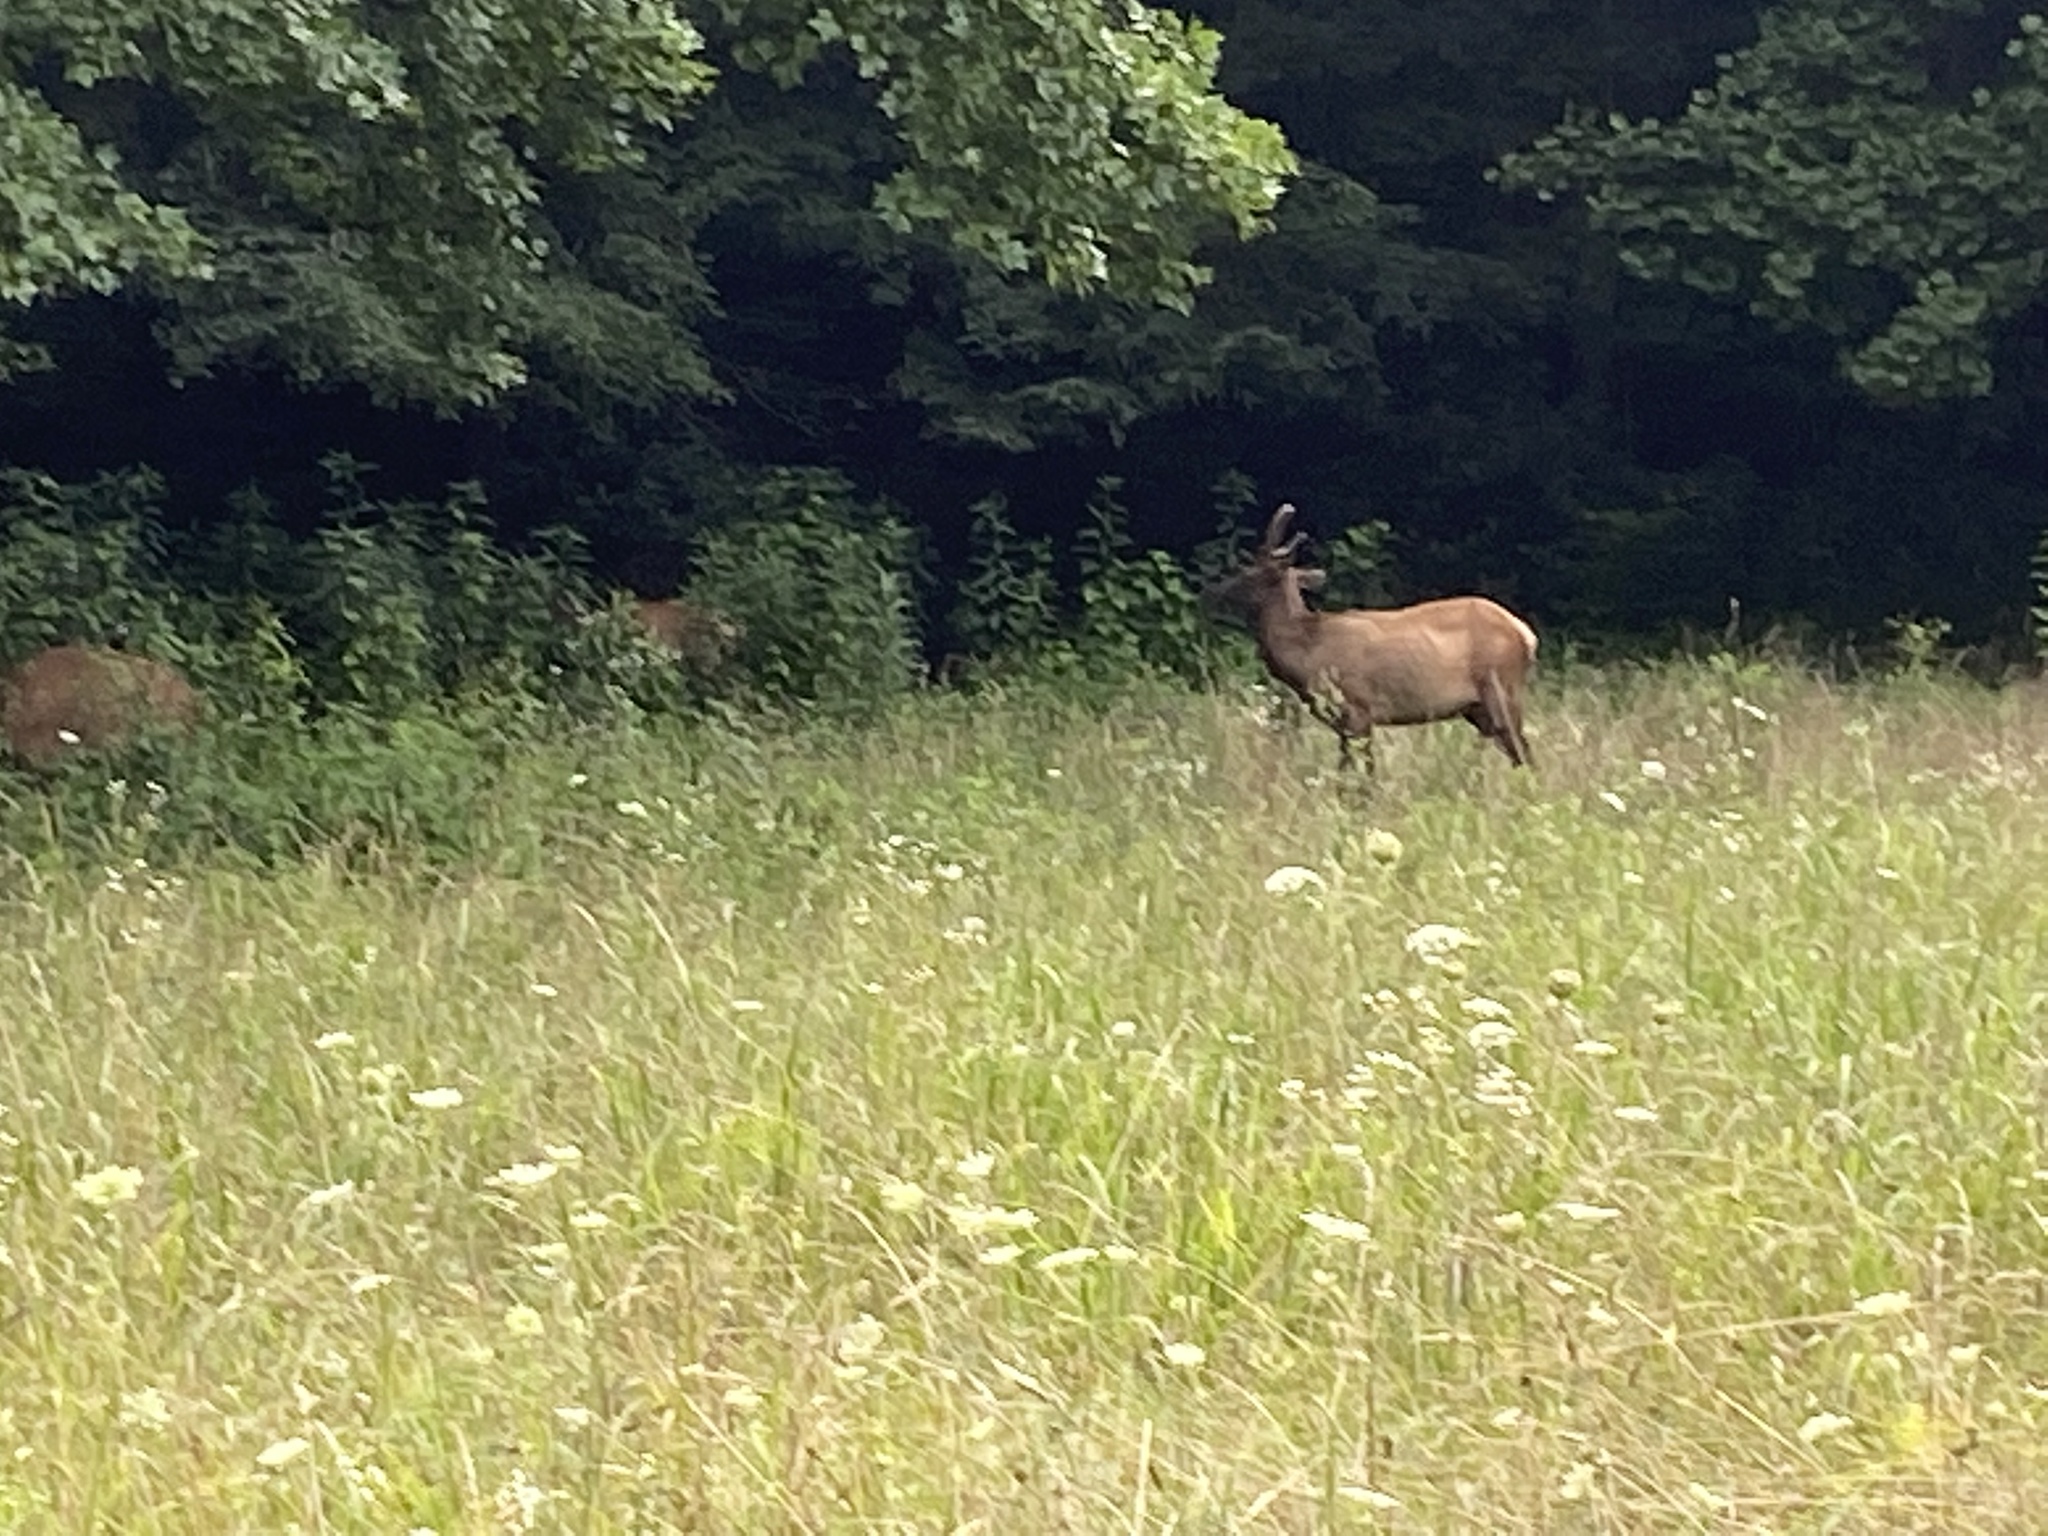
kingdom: Animalia
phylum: Chordata
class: Mammalia
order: Artiodactyla
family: Cervidae
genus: Cervus
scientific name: Cervus elaphus
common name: Red deer
